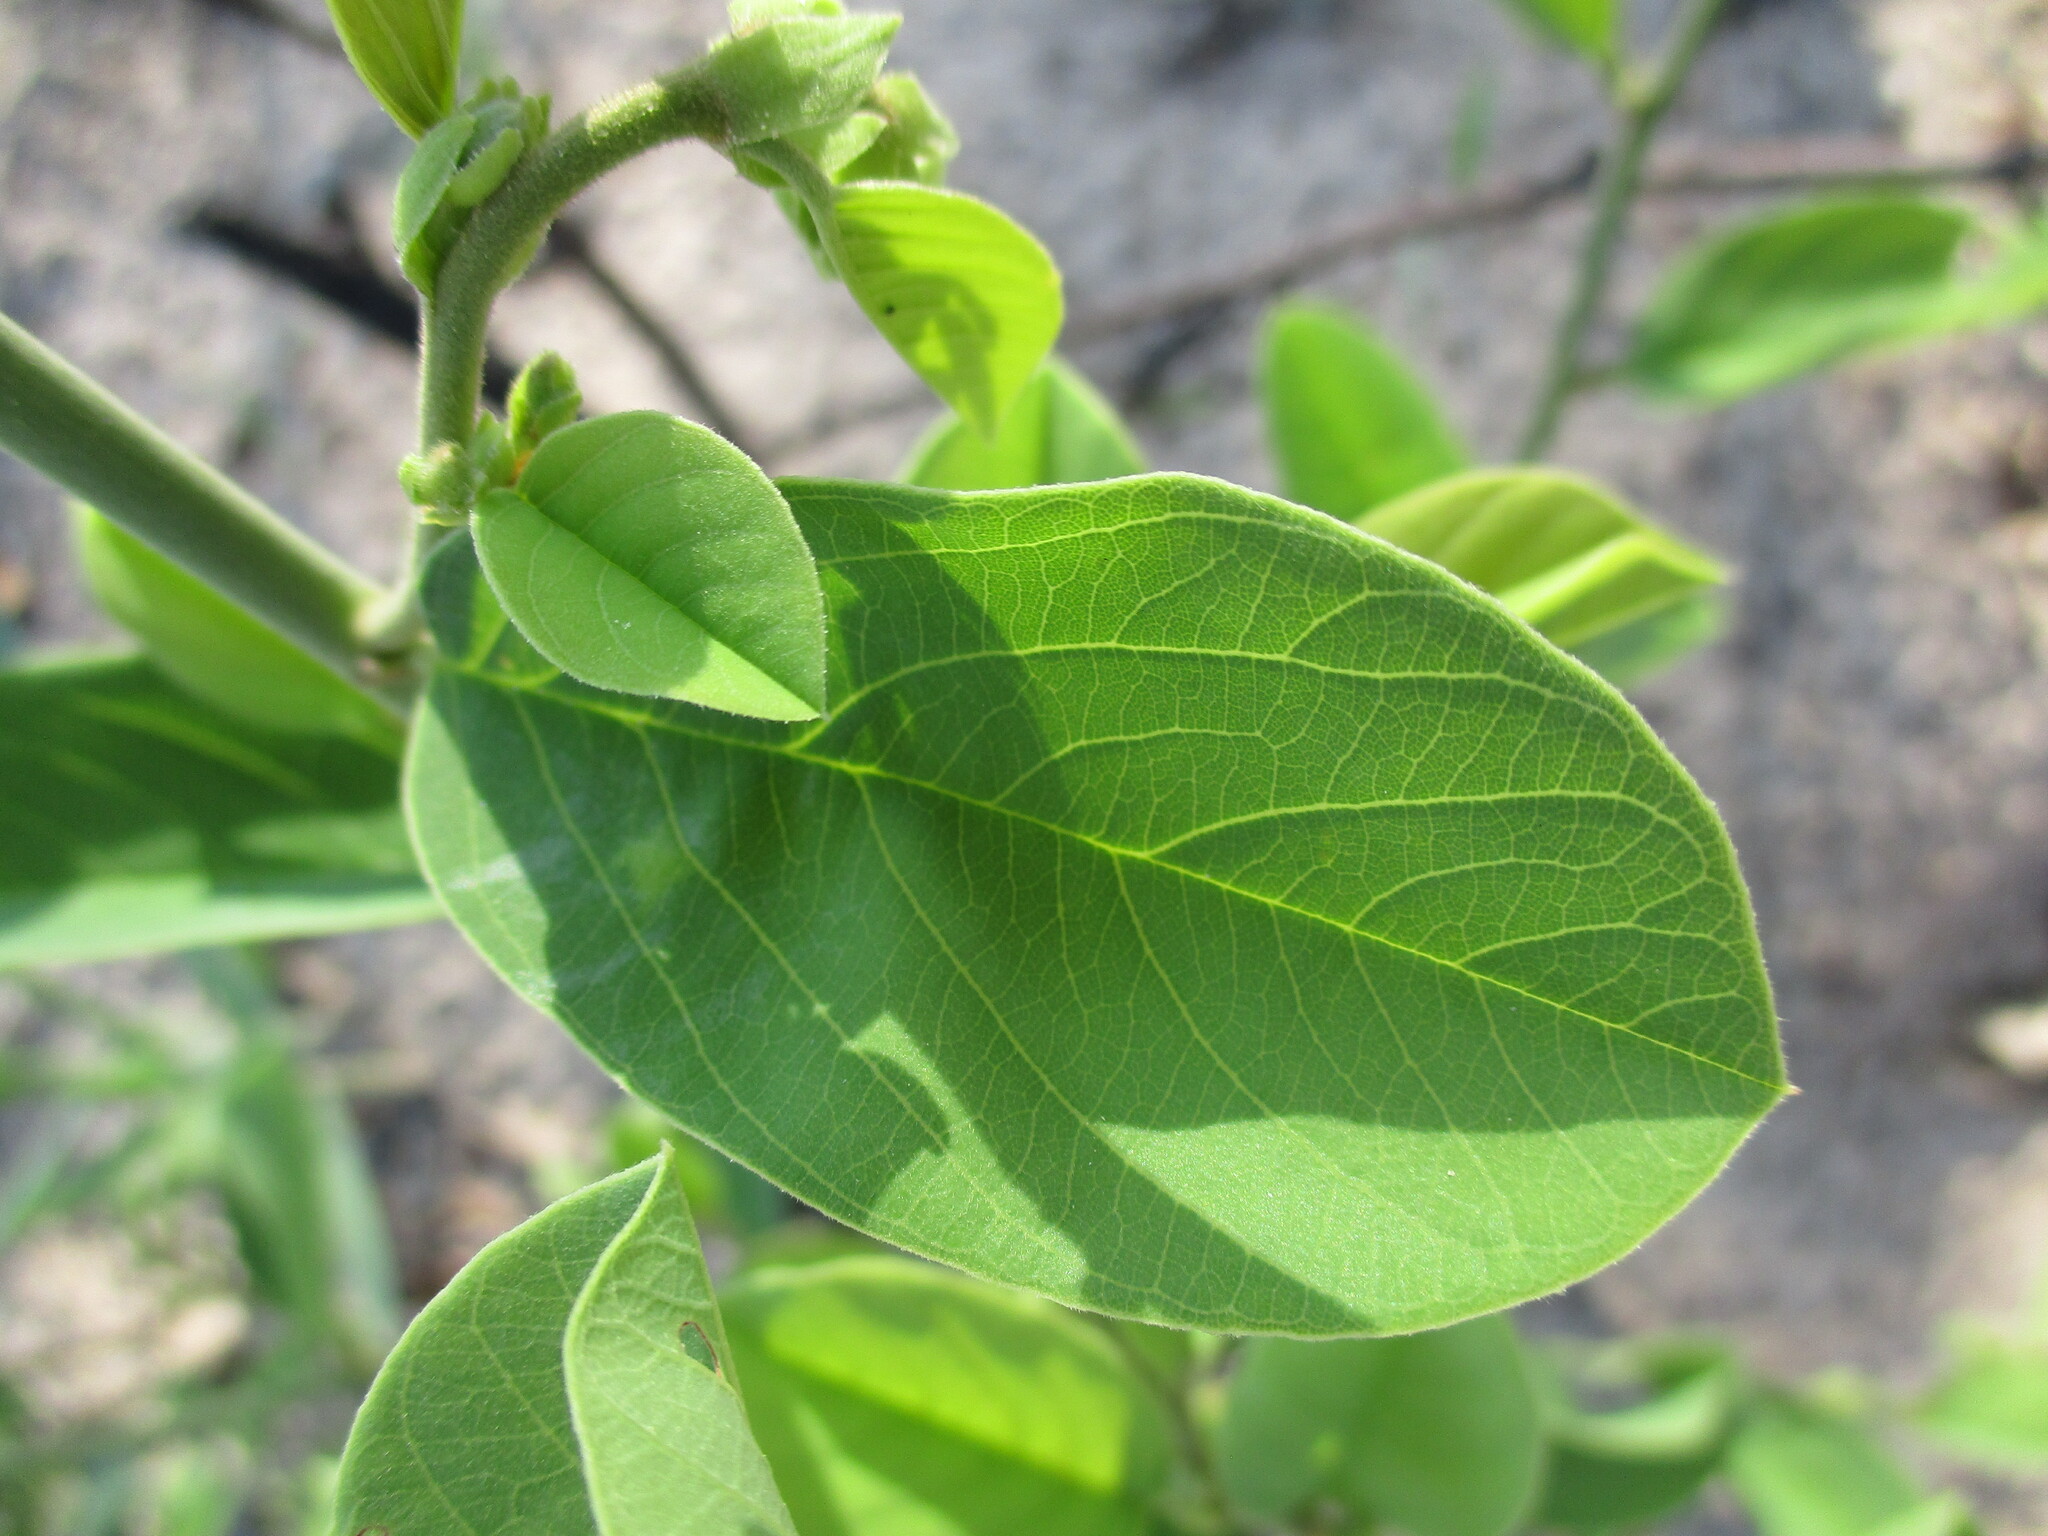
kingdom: Plantae
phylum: Tracheophyta
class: Magnoliopsida
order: Fabales
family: Fabaceae
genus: Baphia
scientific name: Baphia massaiensis
